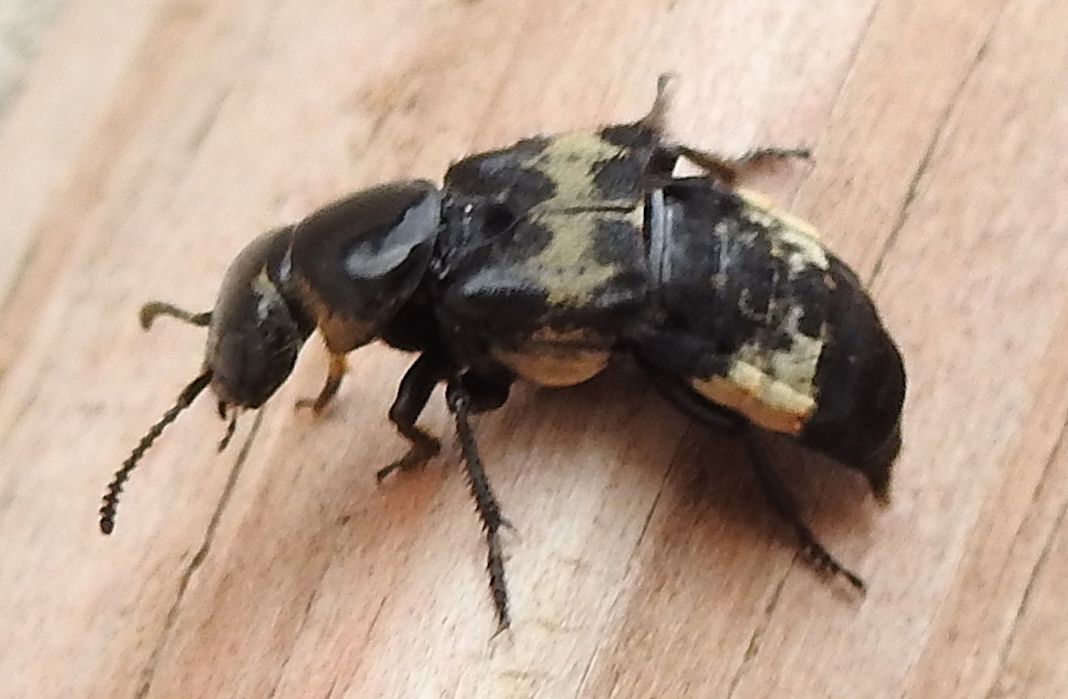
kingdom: Animalia
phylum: Arthropoda
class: Insecta
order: Coleoptera
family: Staphylinidae
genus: Creophilus
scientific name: Creophilus maxillosus
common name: Hairy rove beetle
